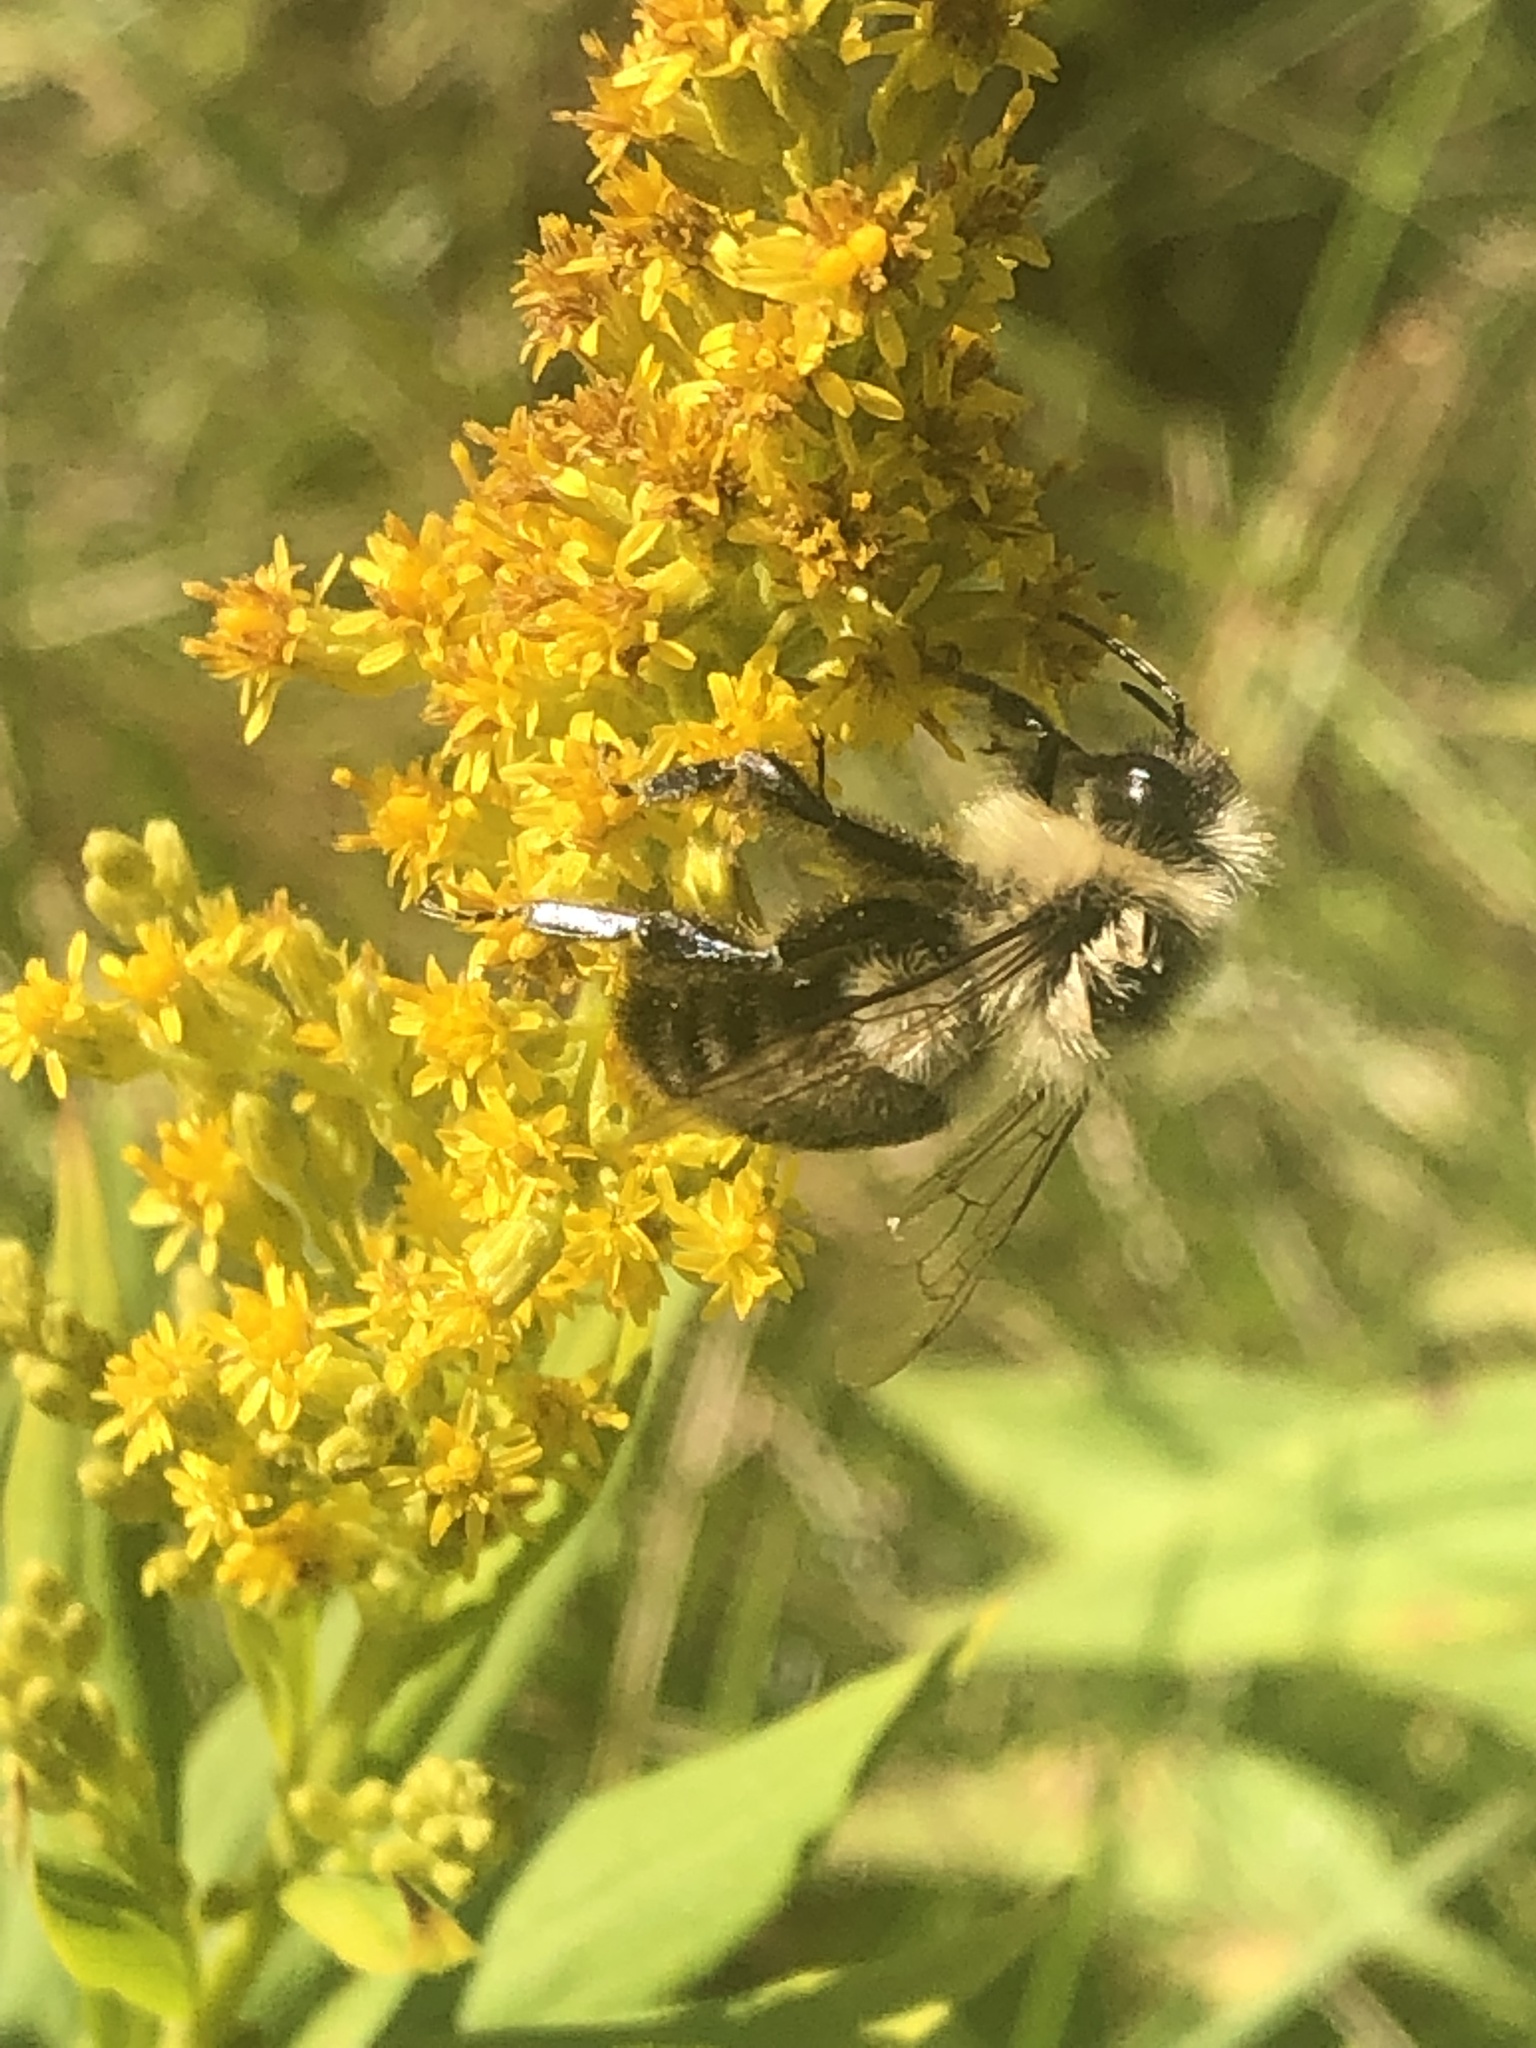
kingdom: Animalia
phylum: Arthropoda
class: Insecta
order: Hymenoptera
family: Apidae
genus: Bombus
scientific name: Bombus impatiens
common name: Common eastern bumble bee
